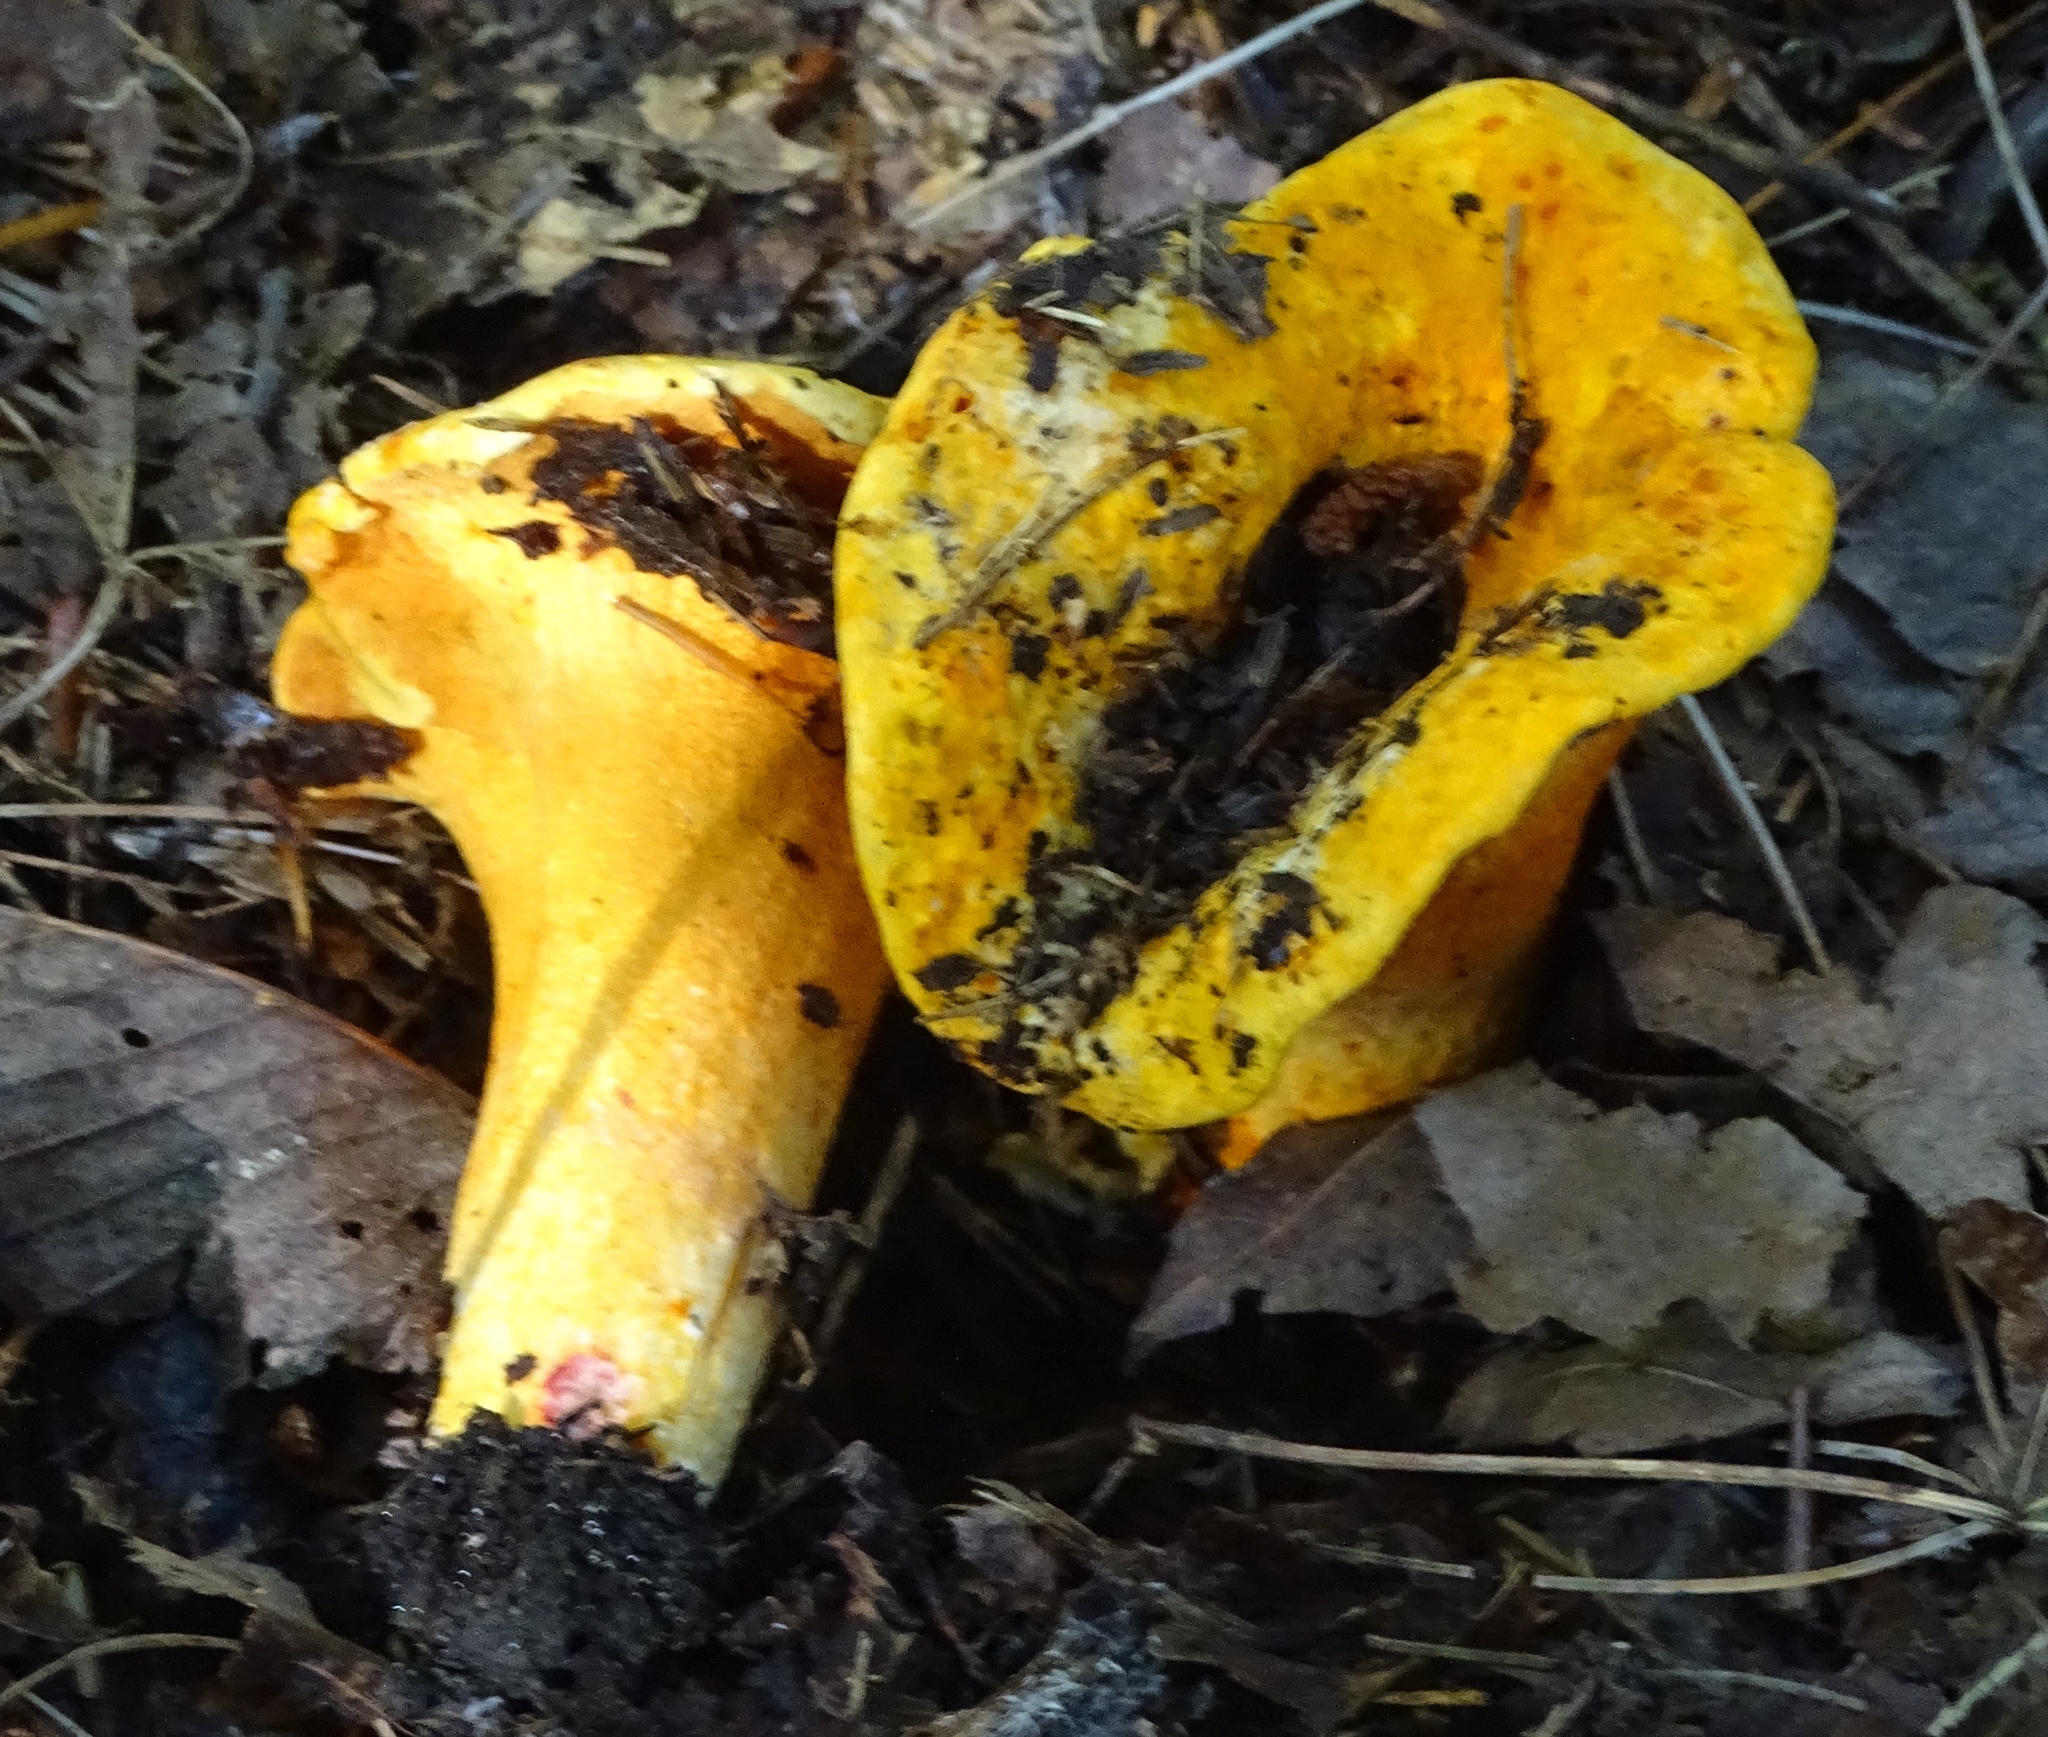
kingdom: Fungi
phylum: Ascomycota
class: Sordariomycetes
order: Hypocreales
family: Hypocreaceae
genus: Hypomyces
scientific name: Hypomyces lactifluorum
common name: Lobster mushroom
